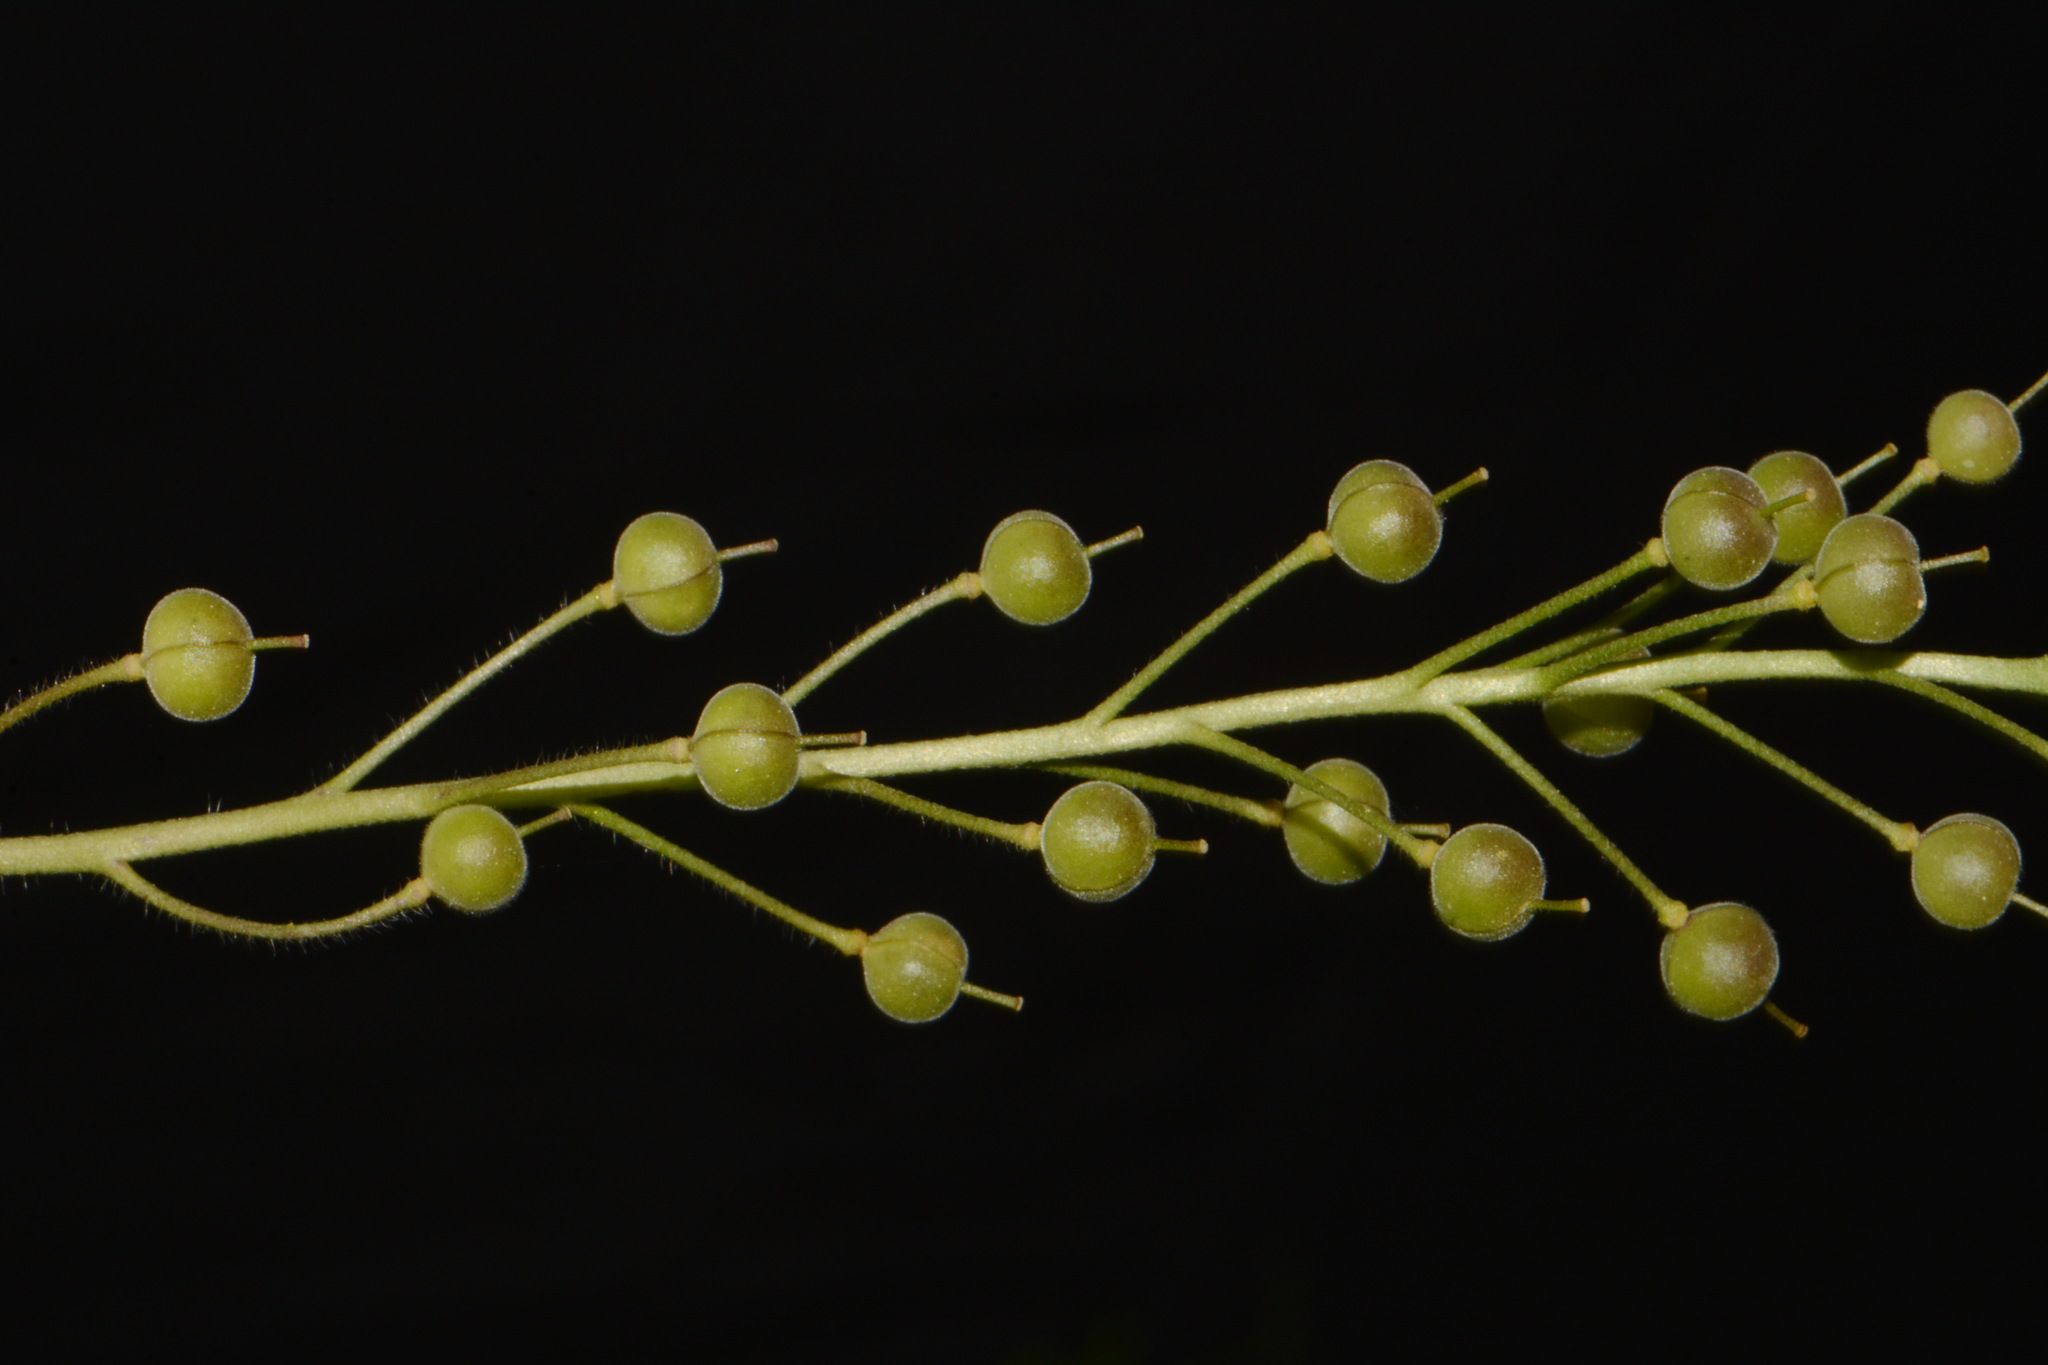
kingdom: Plantae
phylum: Tracheophyta
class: Magnoliopsida
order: Brassicales
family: Brassicaceae
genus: Paysonia
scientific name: Paysonia densipila
